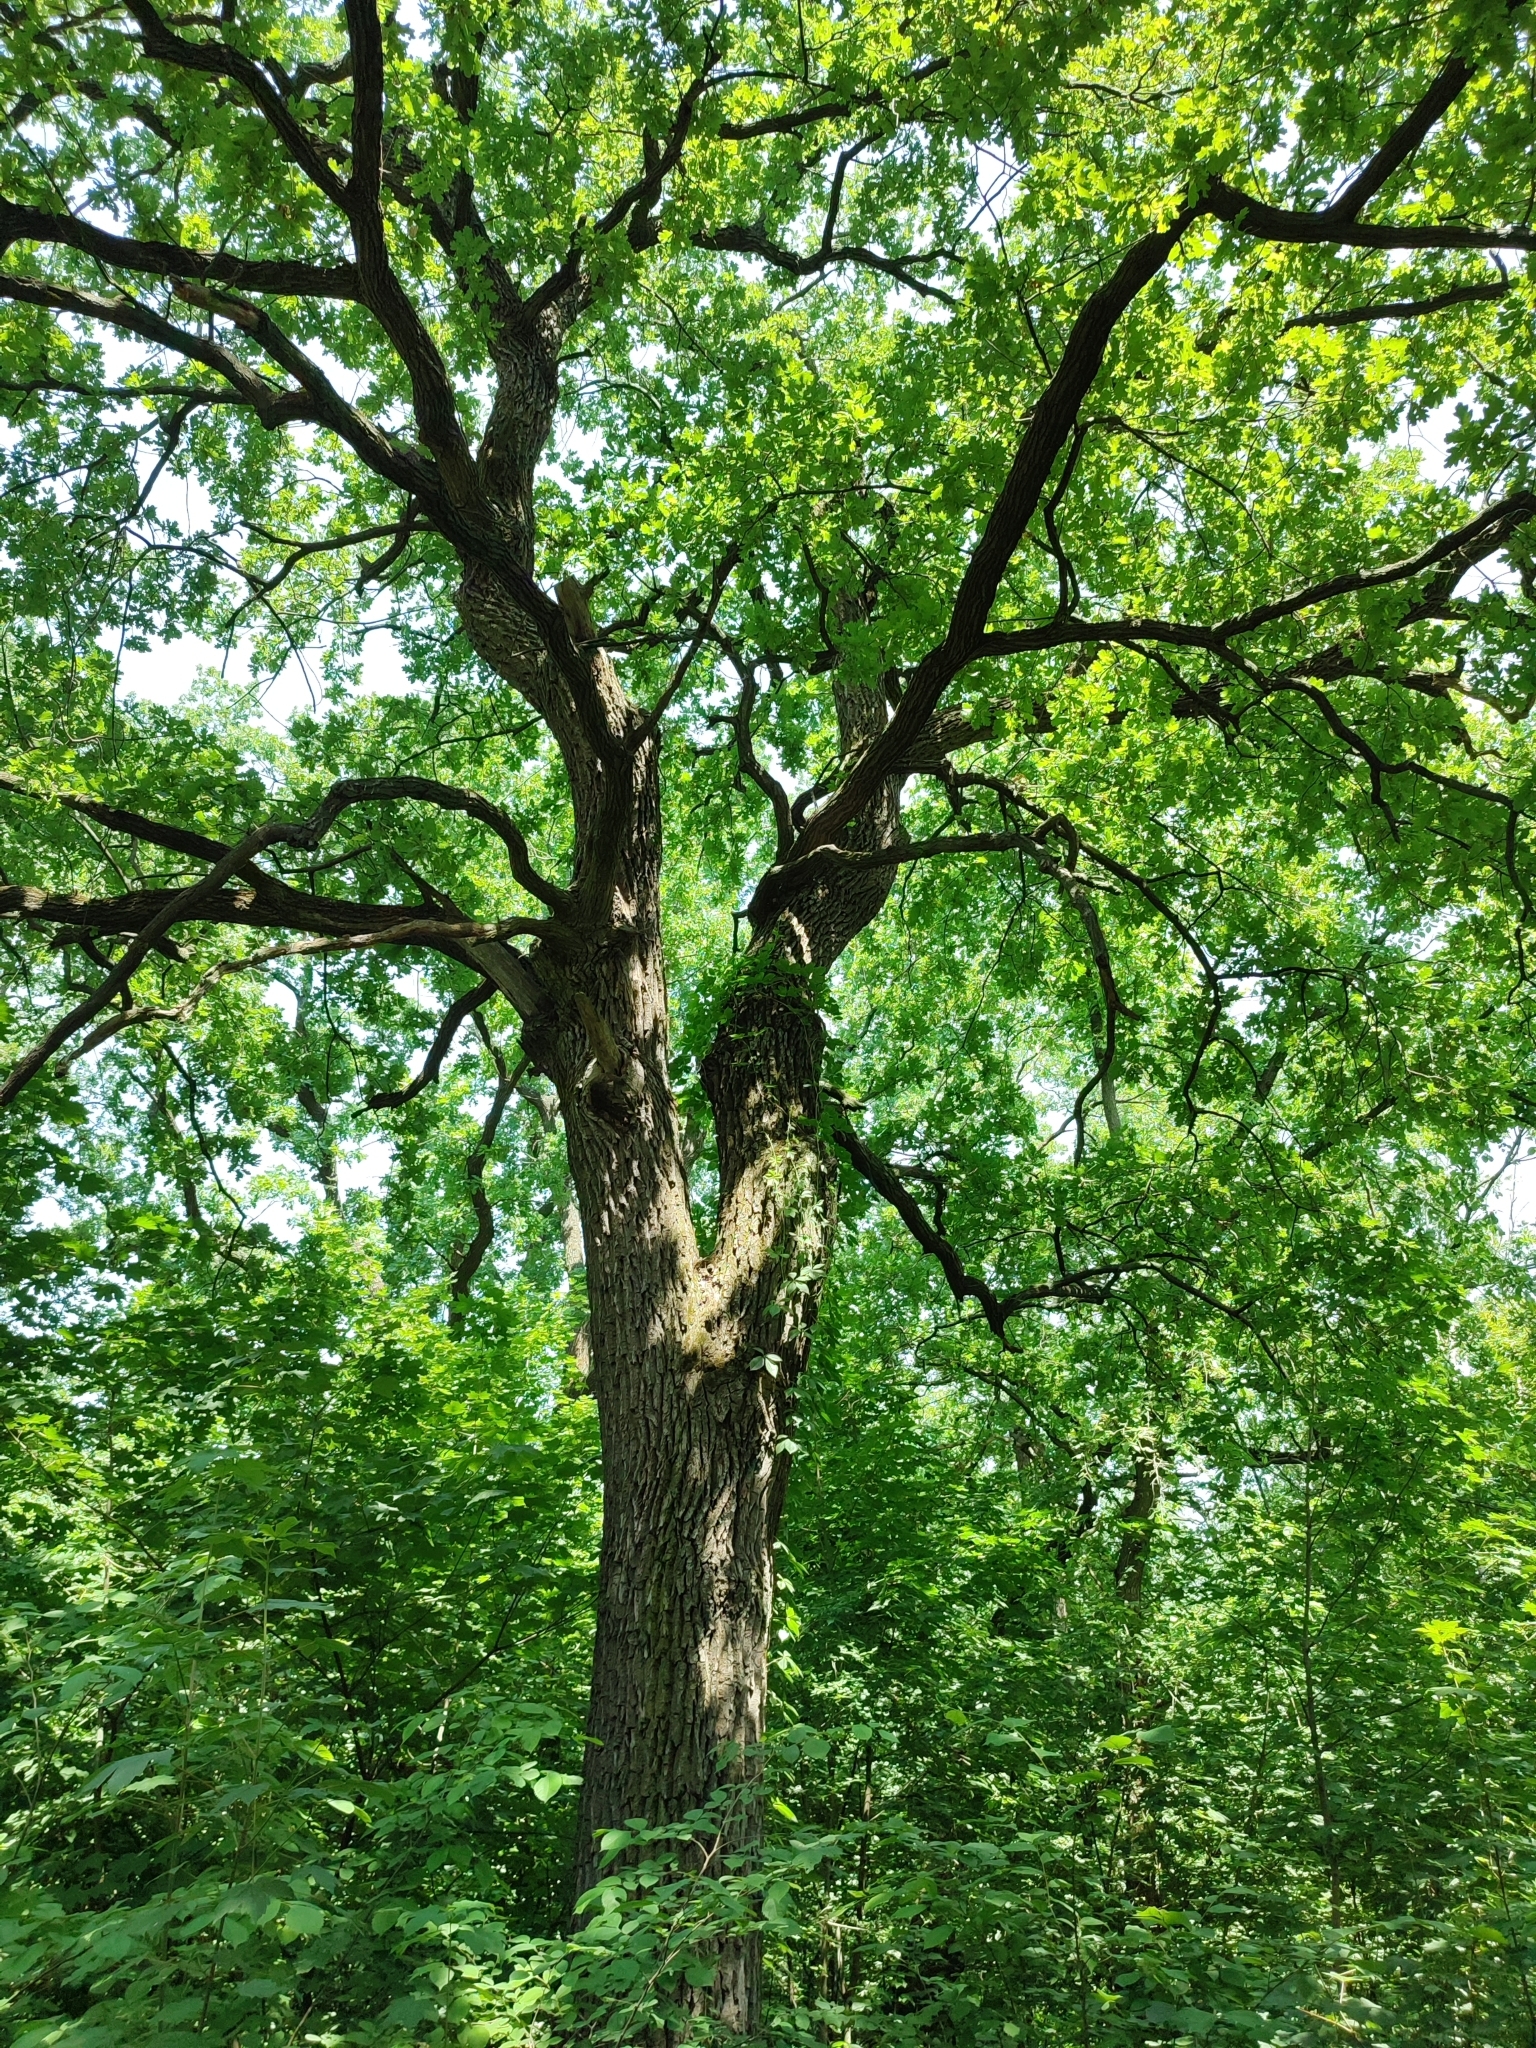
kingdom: Plantae
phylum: Tracheophyta
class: Magnoliopsida
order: Fagales
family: Fagaceae
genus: Quercus
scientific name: Quercus robur
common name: Pedunculate oak
